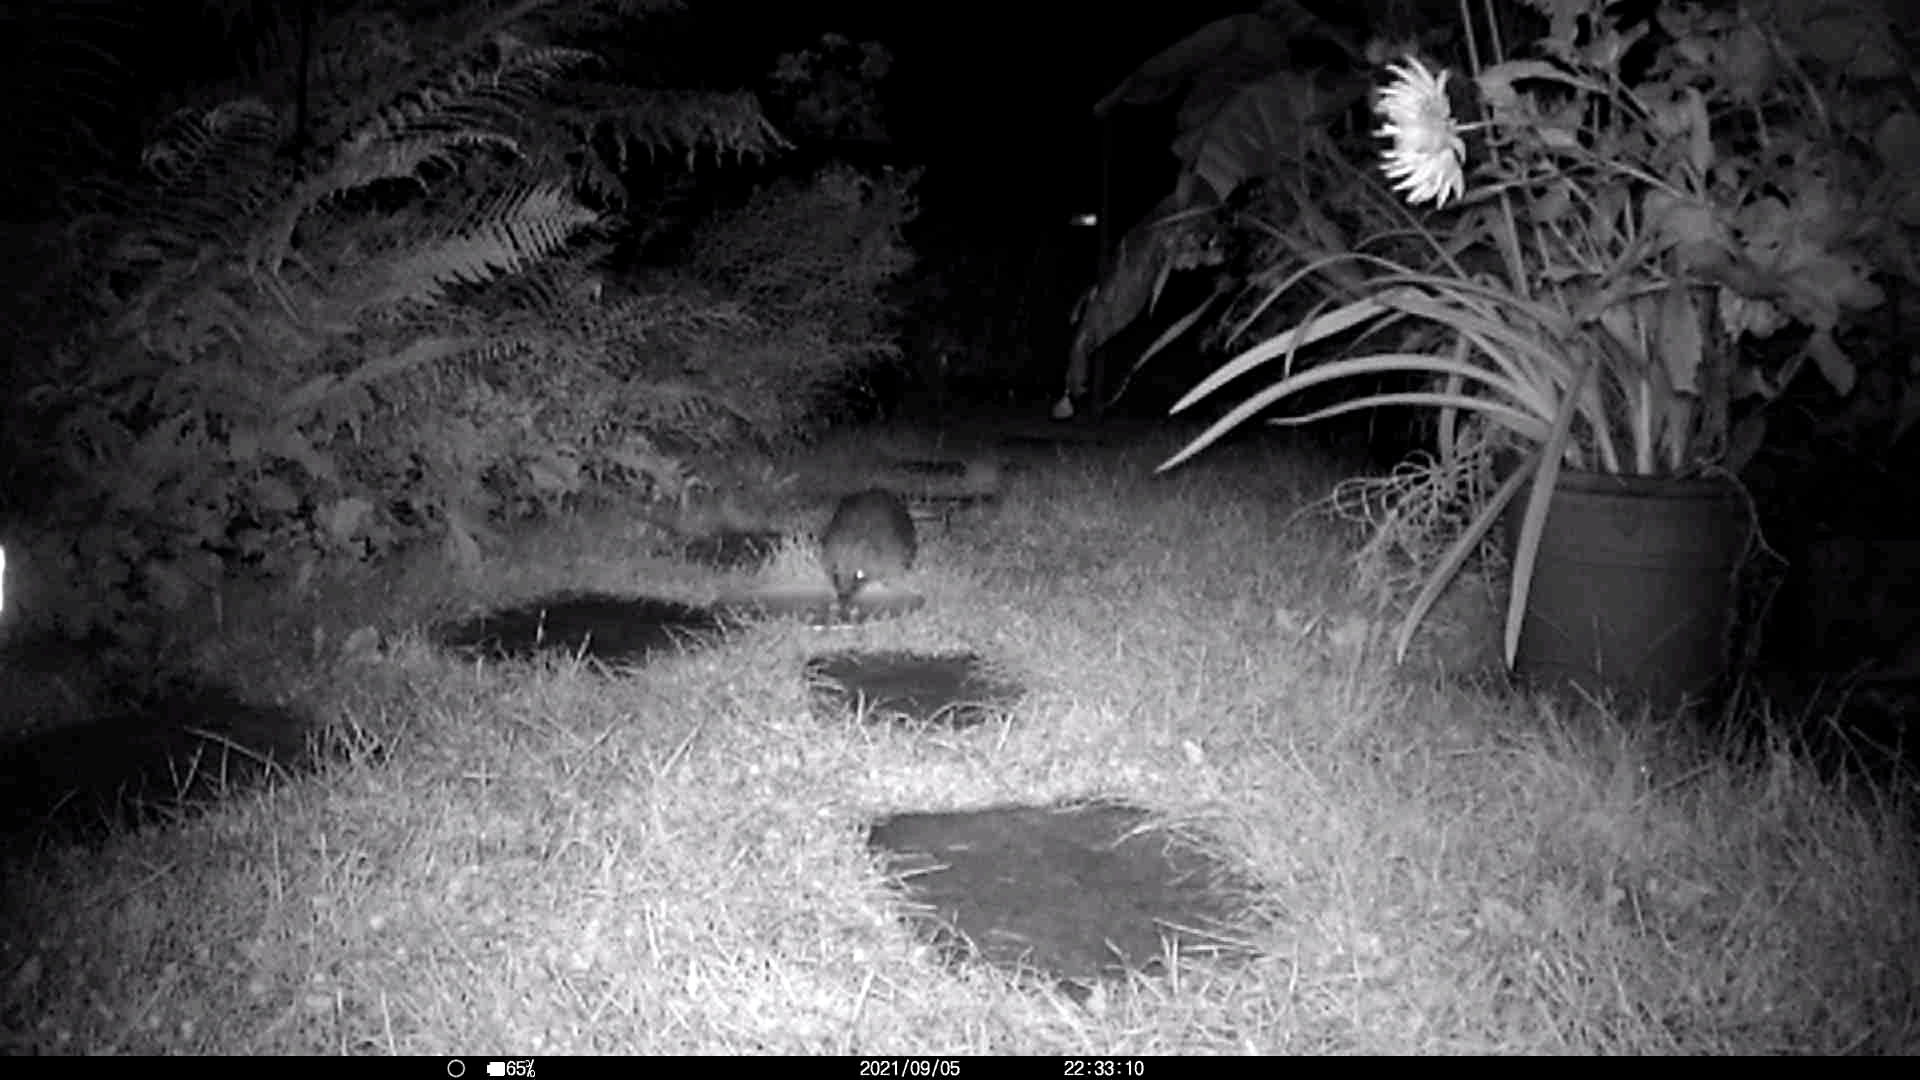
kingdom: Animalia
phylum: Chordata
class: Mammalia
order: Erinaceomorpha
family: Erinaceidae
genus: Erinaceus
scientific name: Erinaceus europaeus
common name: West european hedgehog
